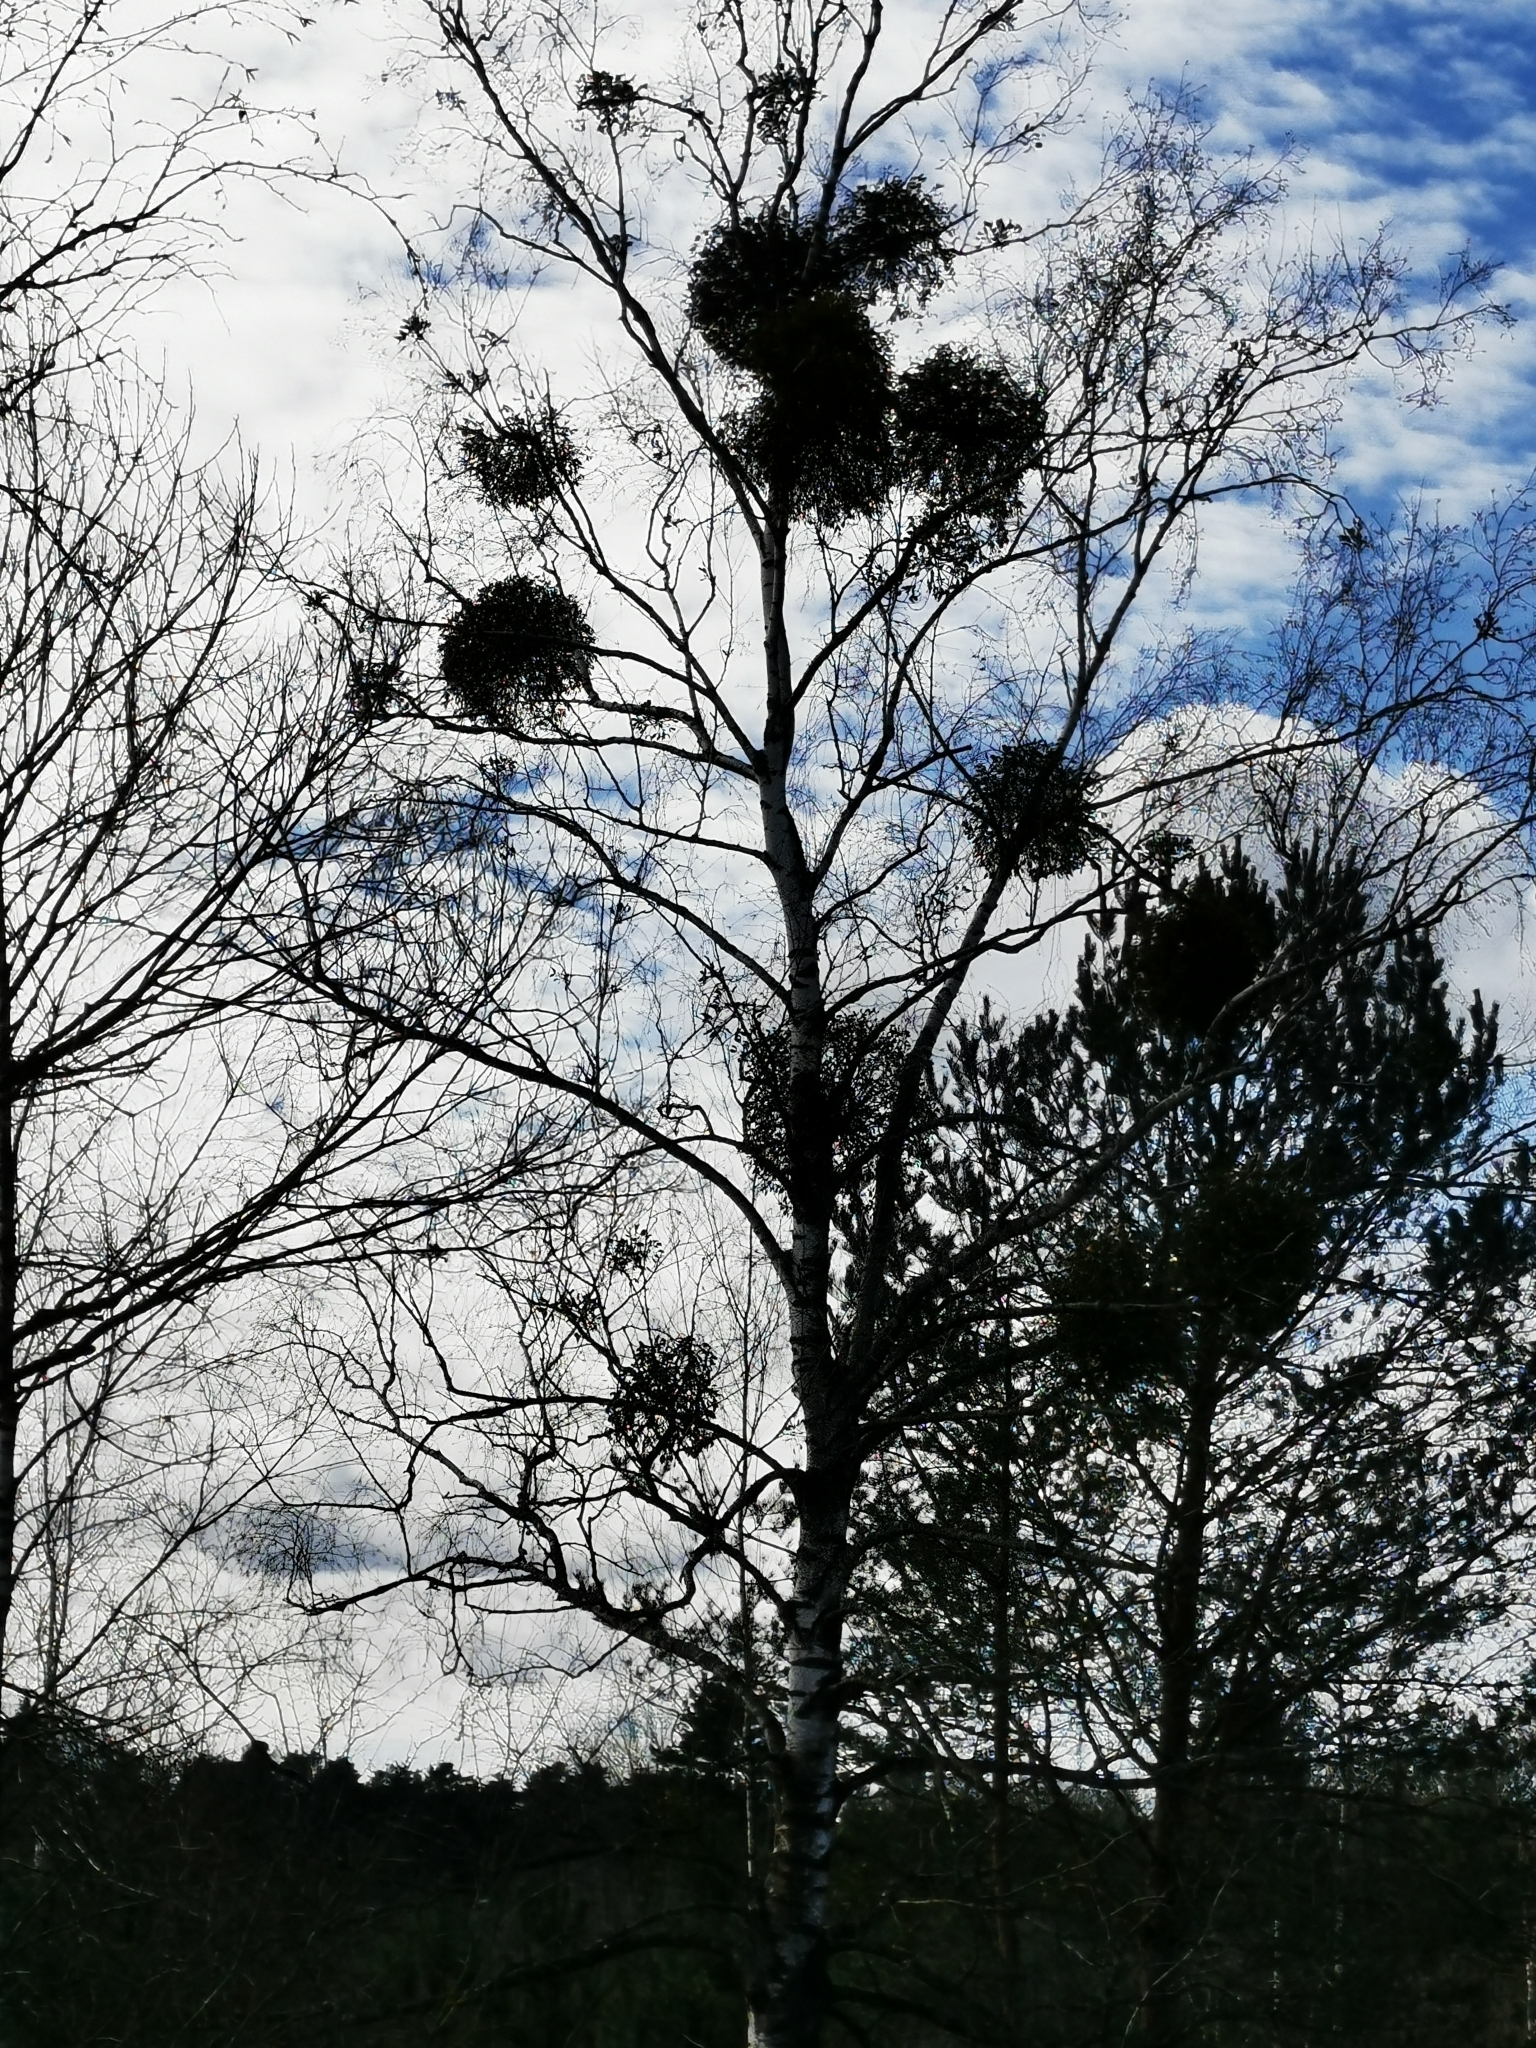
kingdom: Plantae
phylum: Tracheophyta
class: Magnoliopsida
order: Santalales
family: Viscaceae
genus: Viscum
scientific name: Viscum album
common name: Mistletoe
